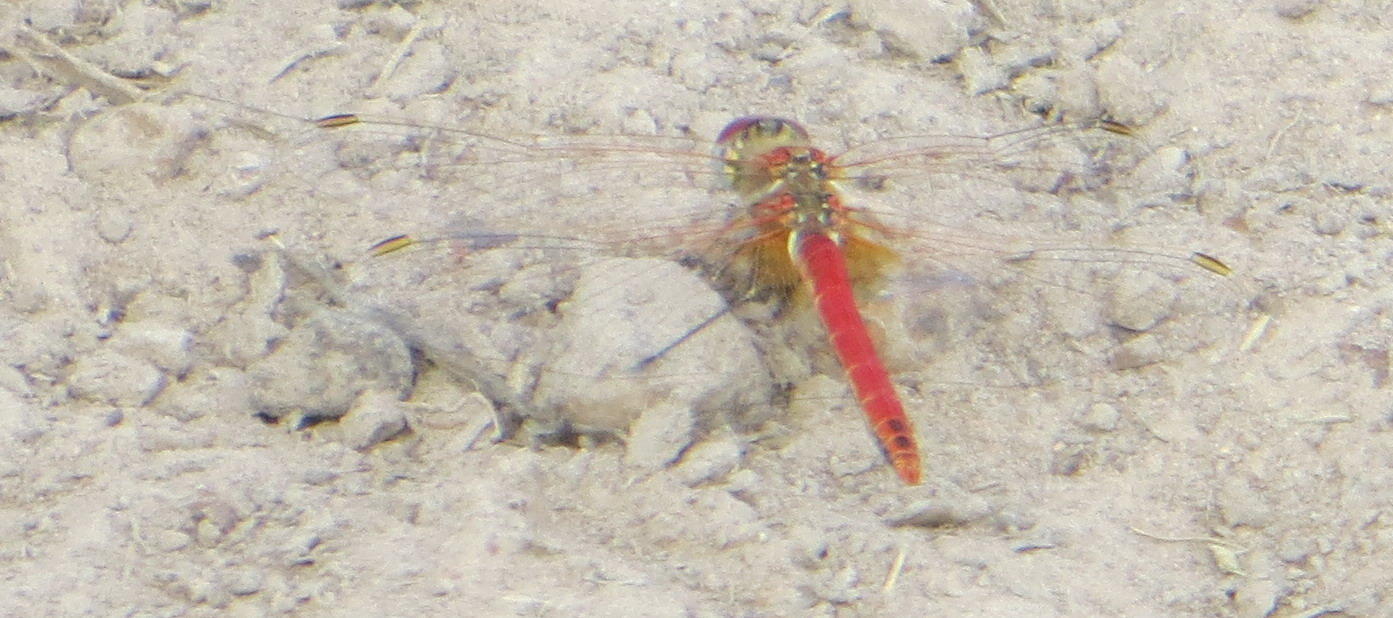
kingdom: Animalia
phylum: Arthropoda
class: Insecta
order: Odonata
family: Libellulidae
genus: Sympetrum
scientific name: Sympetrum fonscolombii
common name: Red-veined darter
